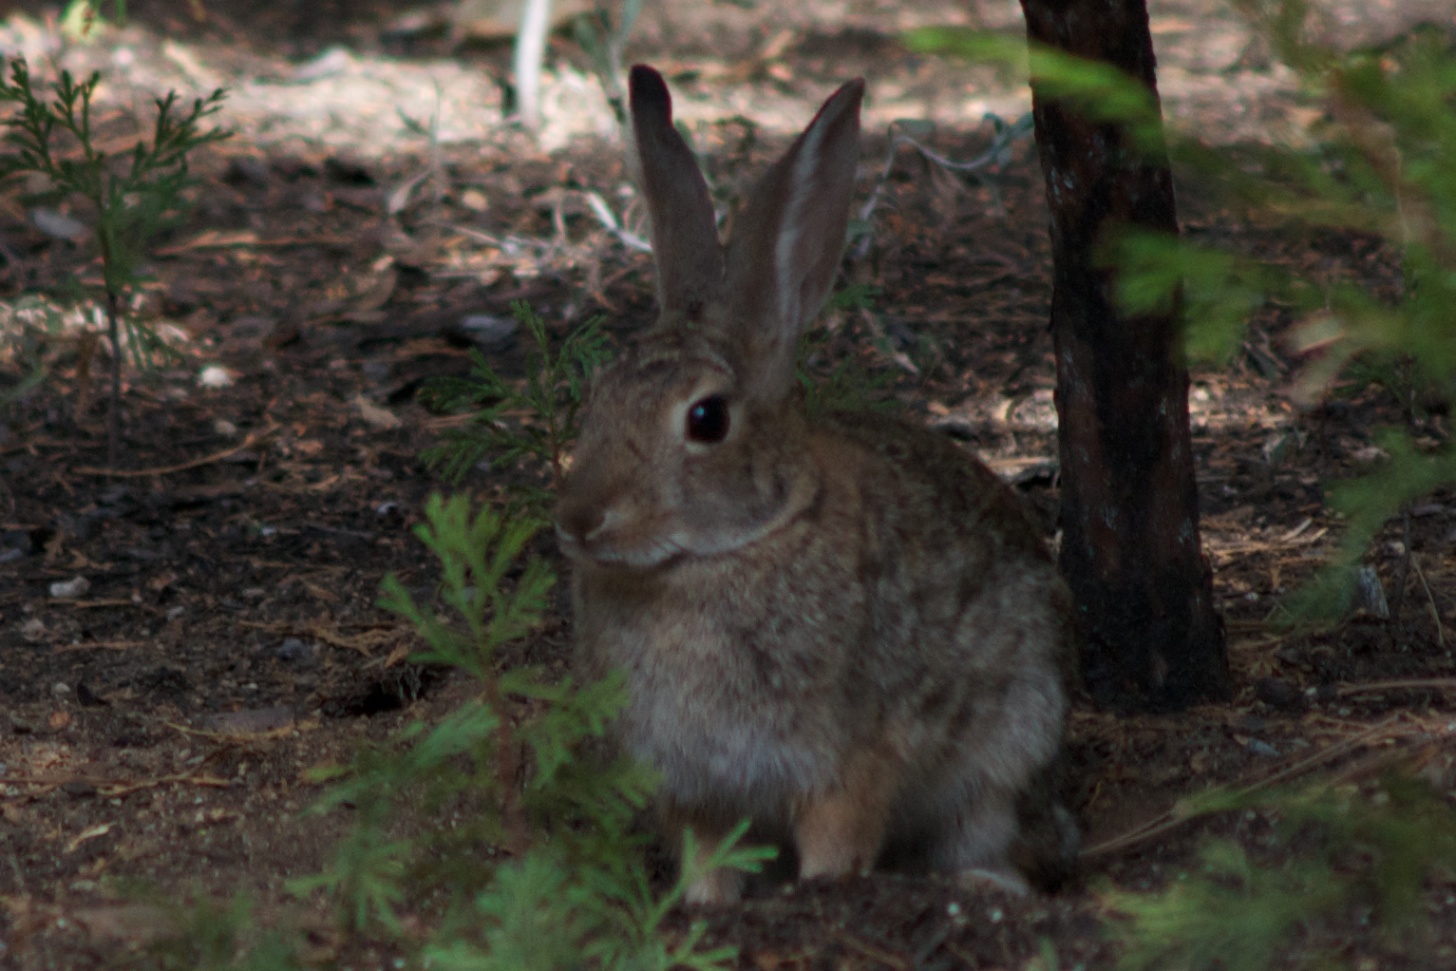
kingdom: Animalia
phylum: Chordata
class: Mammalia
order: Lagomorpha
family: Leporidae
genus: Sylvilagus
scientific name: Sylvilagus audubonii
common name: Desert cottontail
